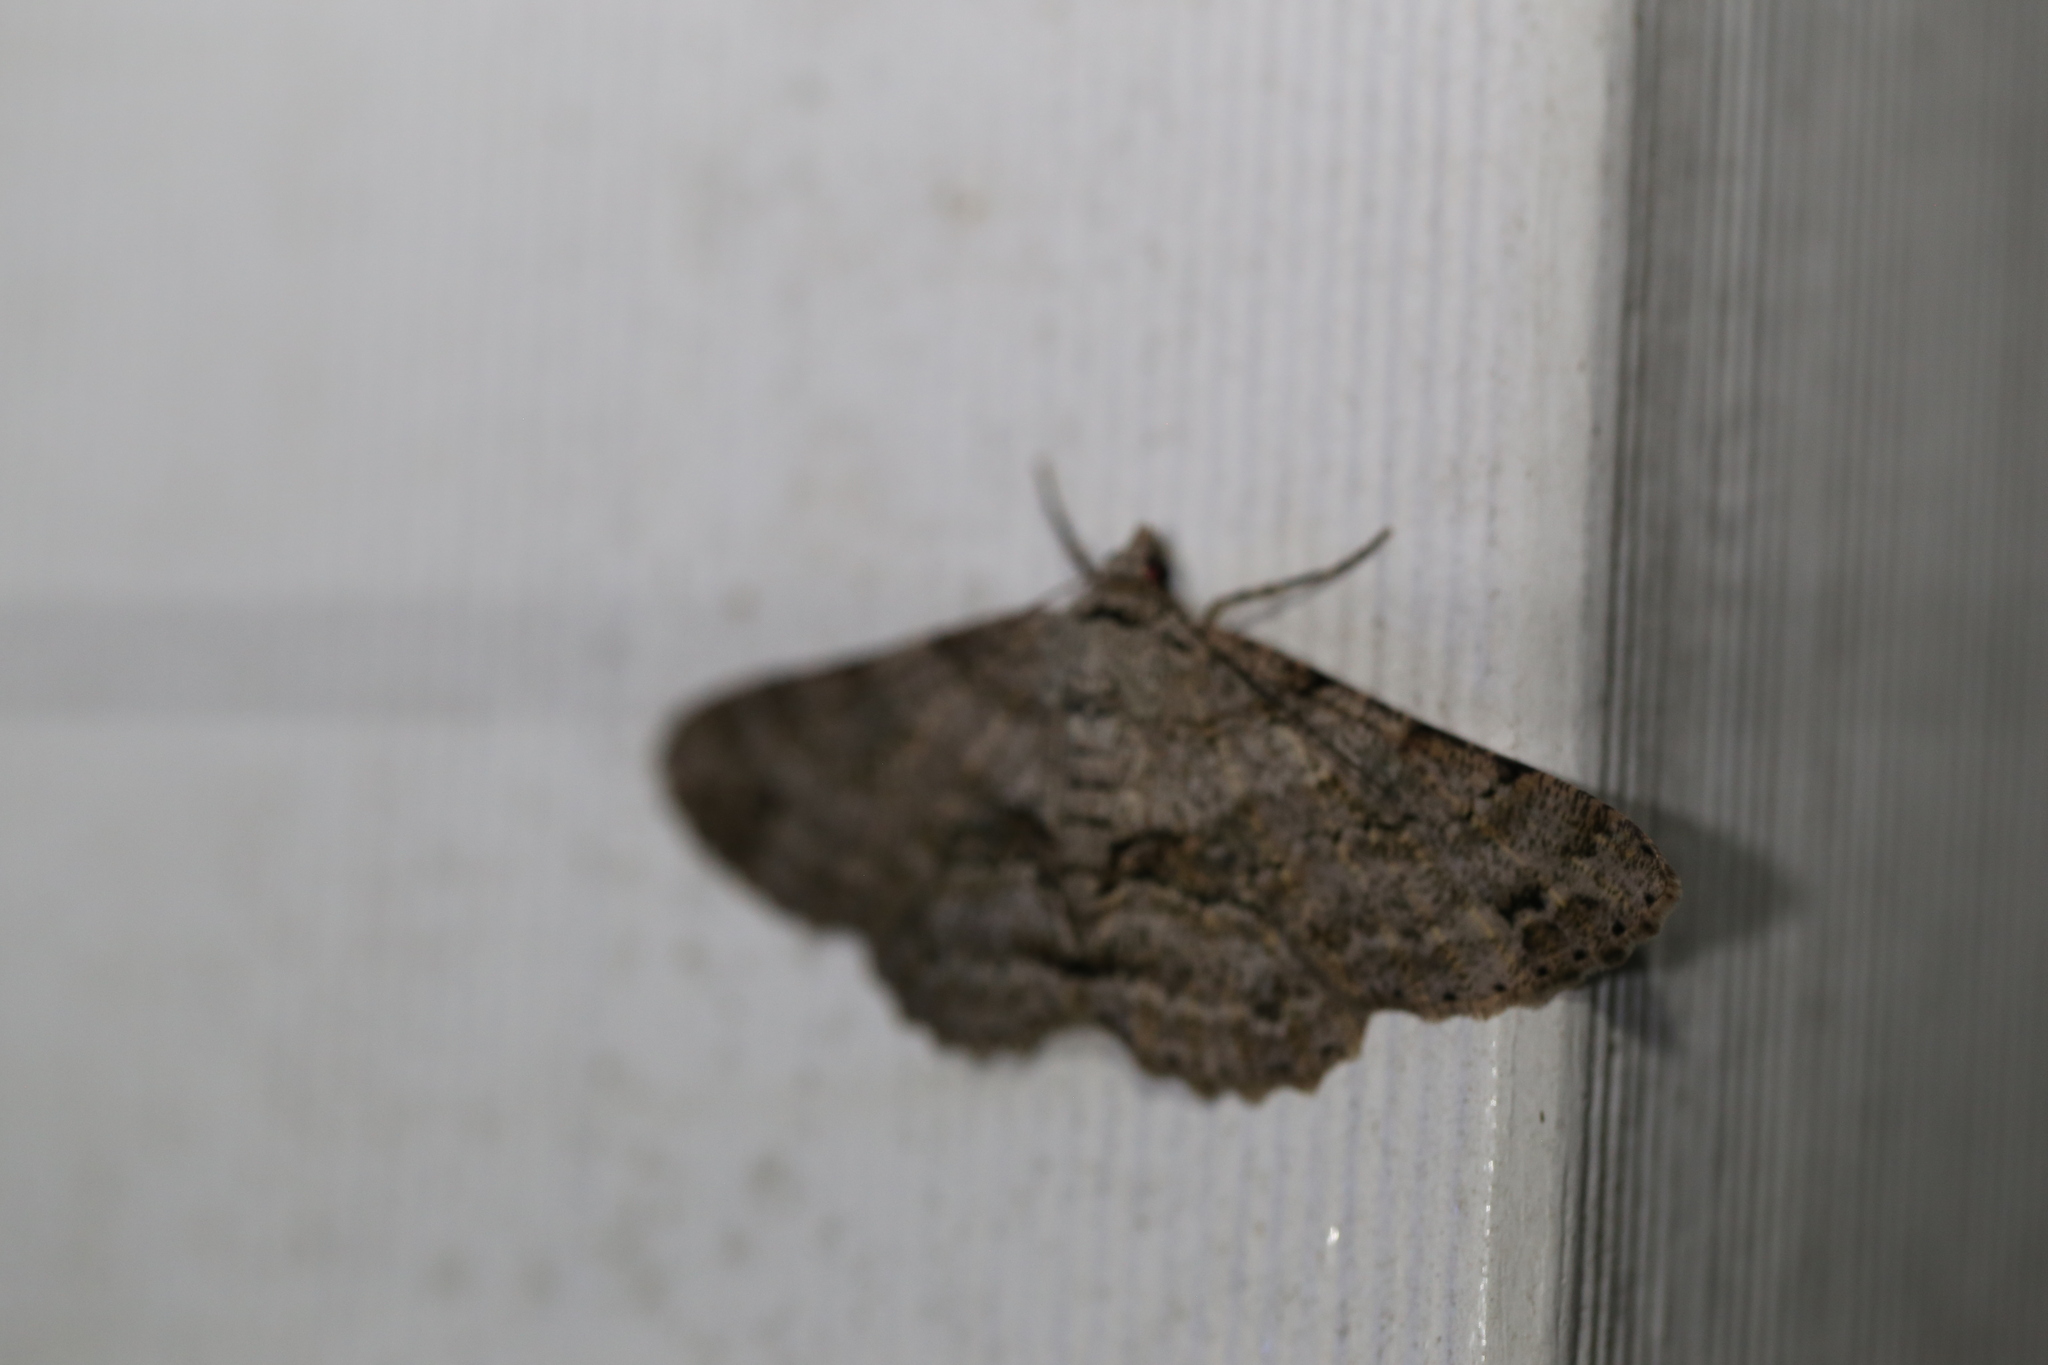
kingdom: Animalia
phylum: Arthropoda
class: Insecta
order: Lepidoptera
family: Geometridae
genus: Cleora
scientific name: Cleora repetita
